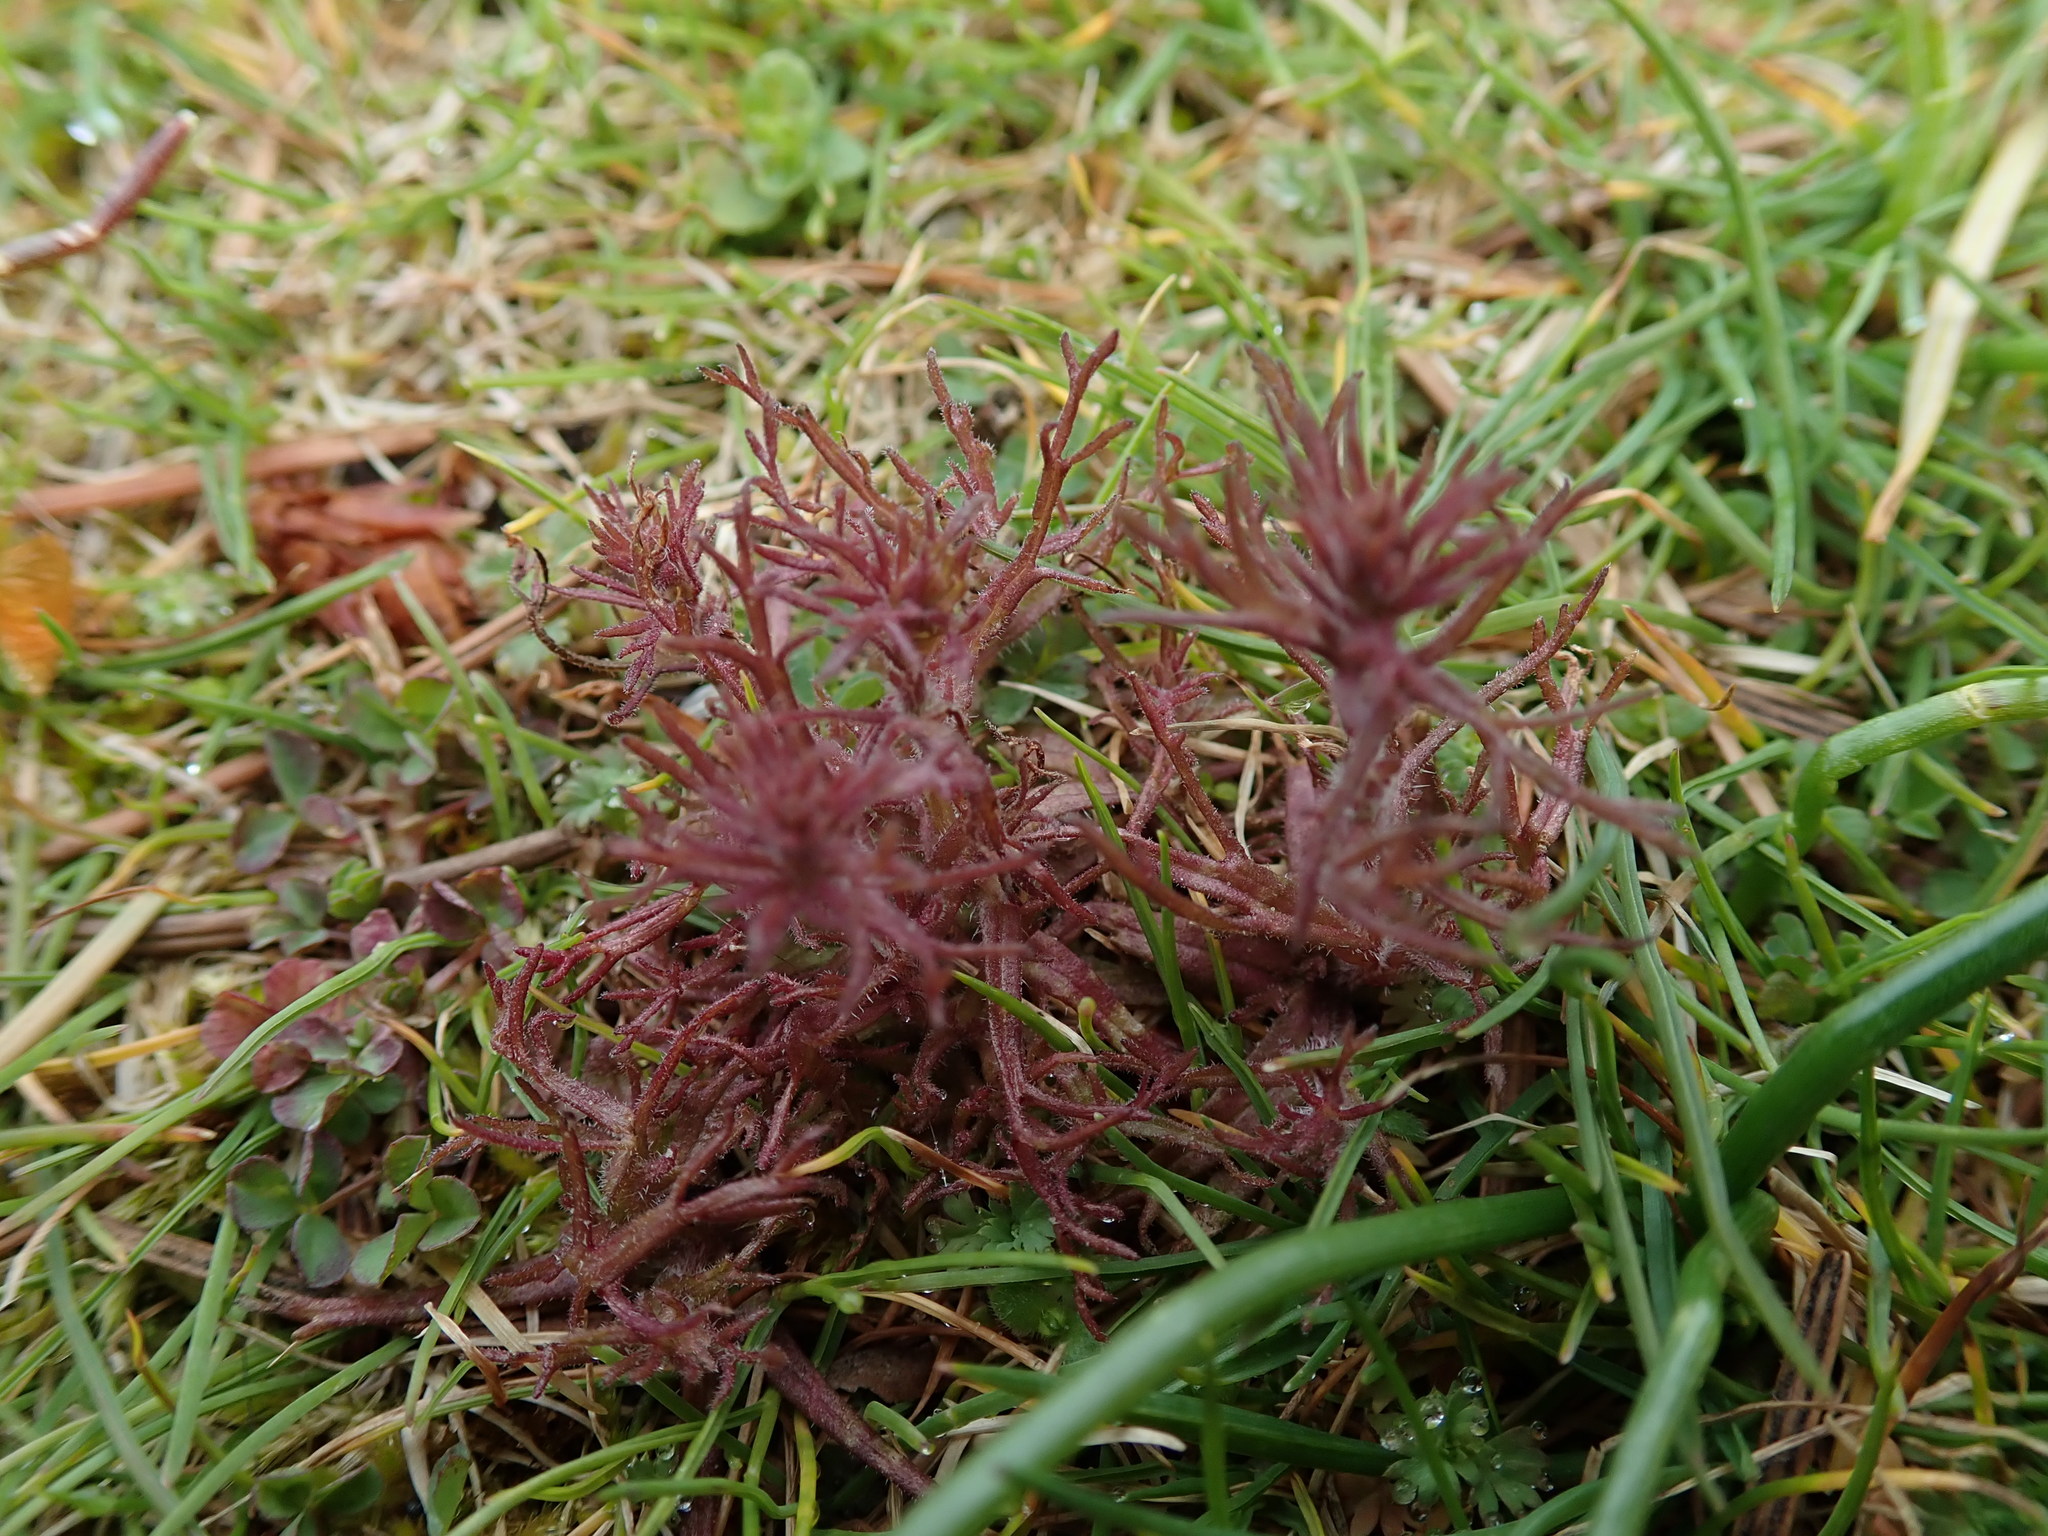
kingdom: Plantae
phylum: Tracheophyta
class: Magnoliopsida
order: Lamiales
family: Orobanchaceae
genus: Triphysaria
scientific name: Triphysaria pusilla
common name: Dwarf false owl-clover
